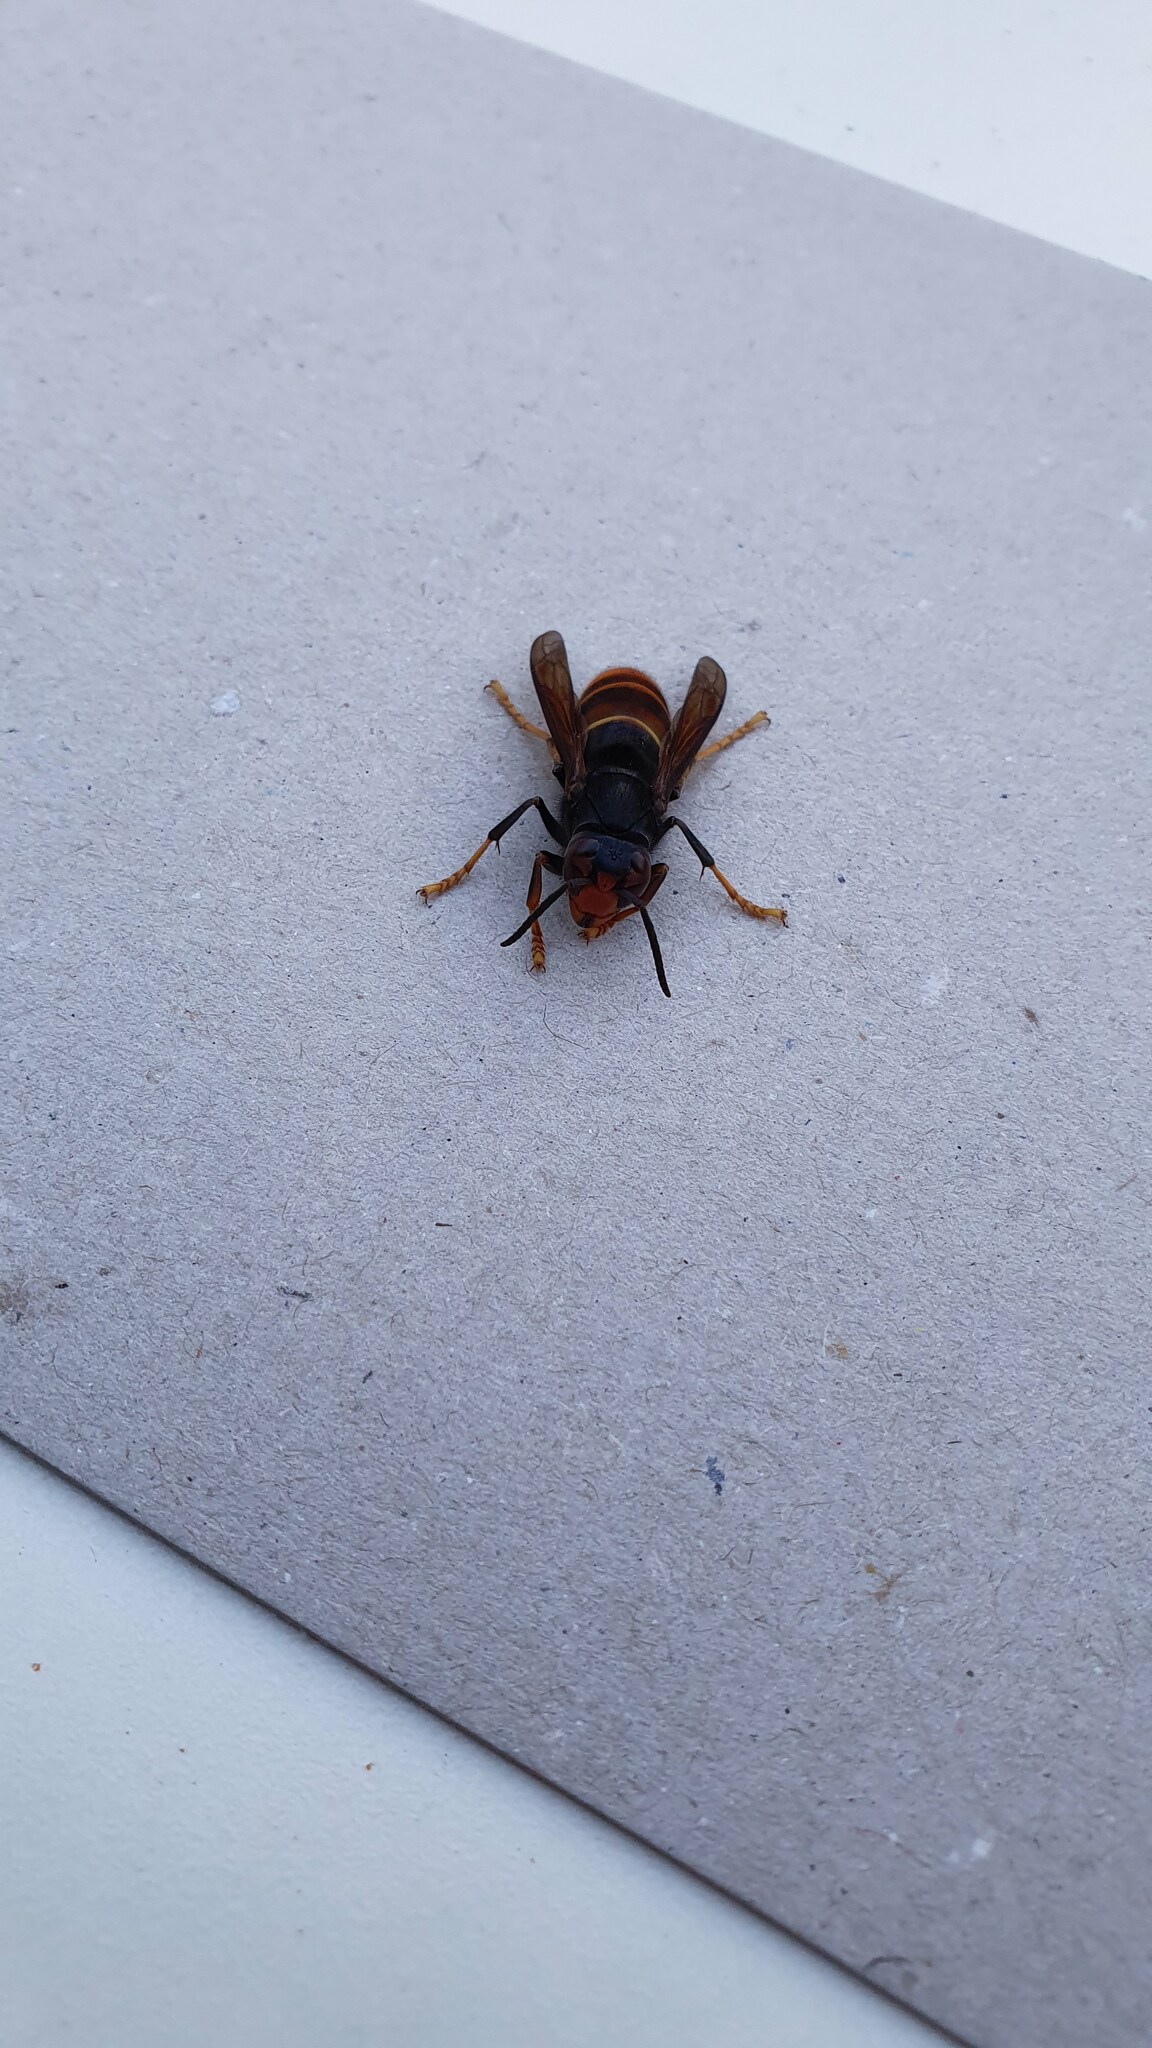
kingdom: Animalia
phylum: Arthropoda
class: Insecta
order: Hymenoptera
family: Vespidae
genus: Vespa
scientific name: Vespa velutina
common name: Asian hornet
